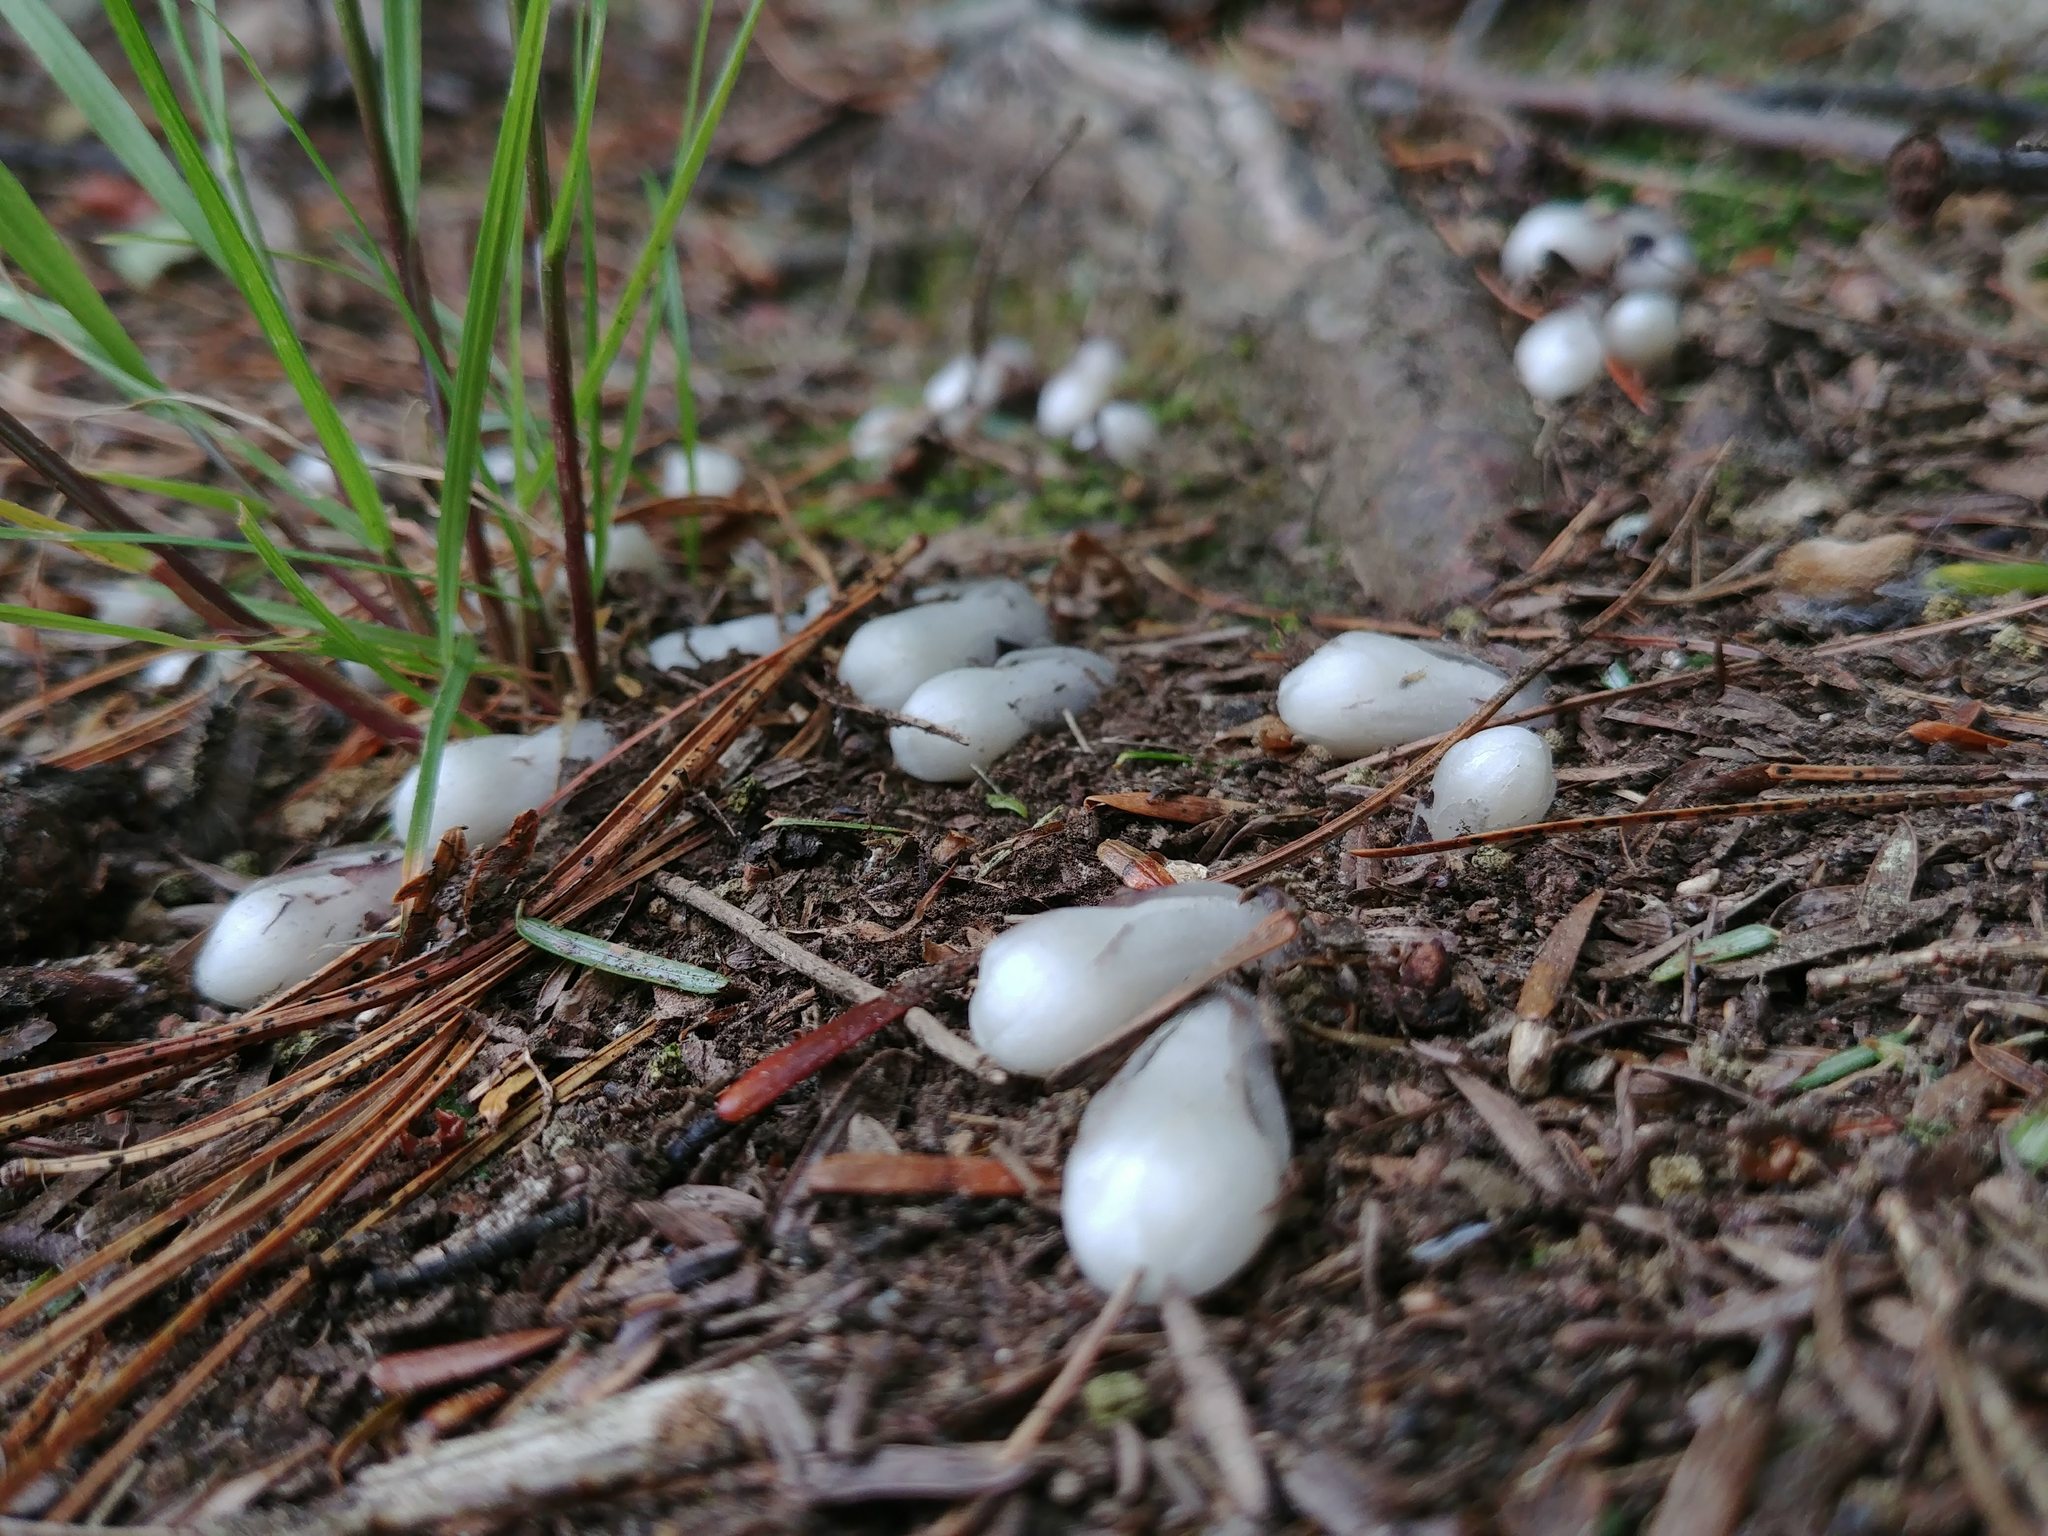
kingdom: Plantae
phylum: Tracheophyta
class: Magnoliopsida
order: Ericales
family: Ericaceae
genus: Monotropa
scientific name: Monotropa uniflora
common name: Convulsion root
